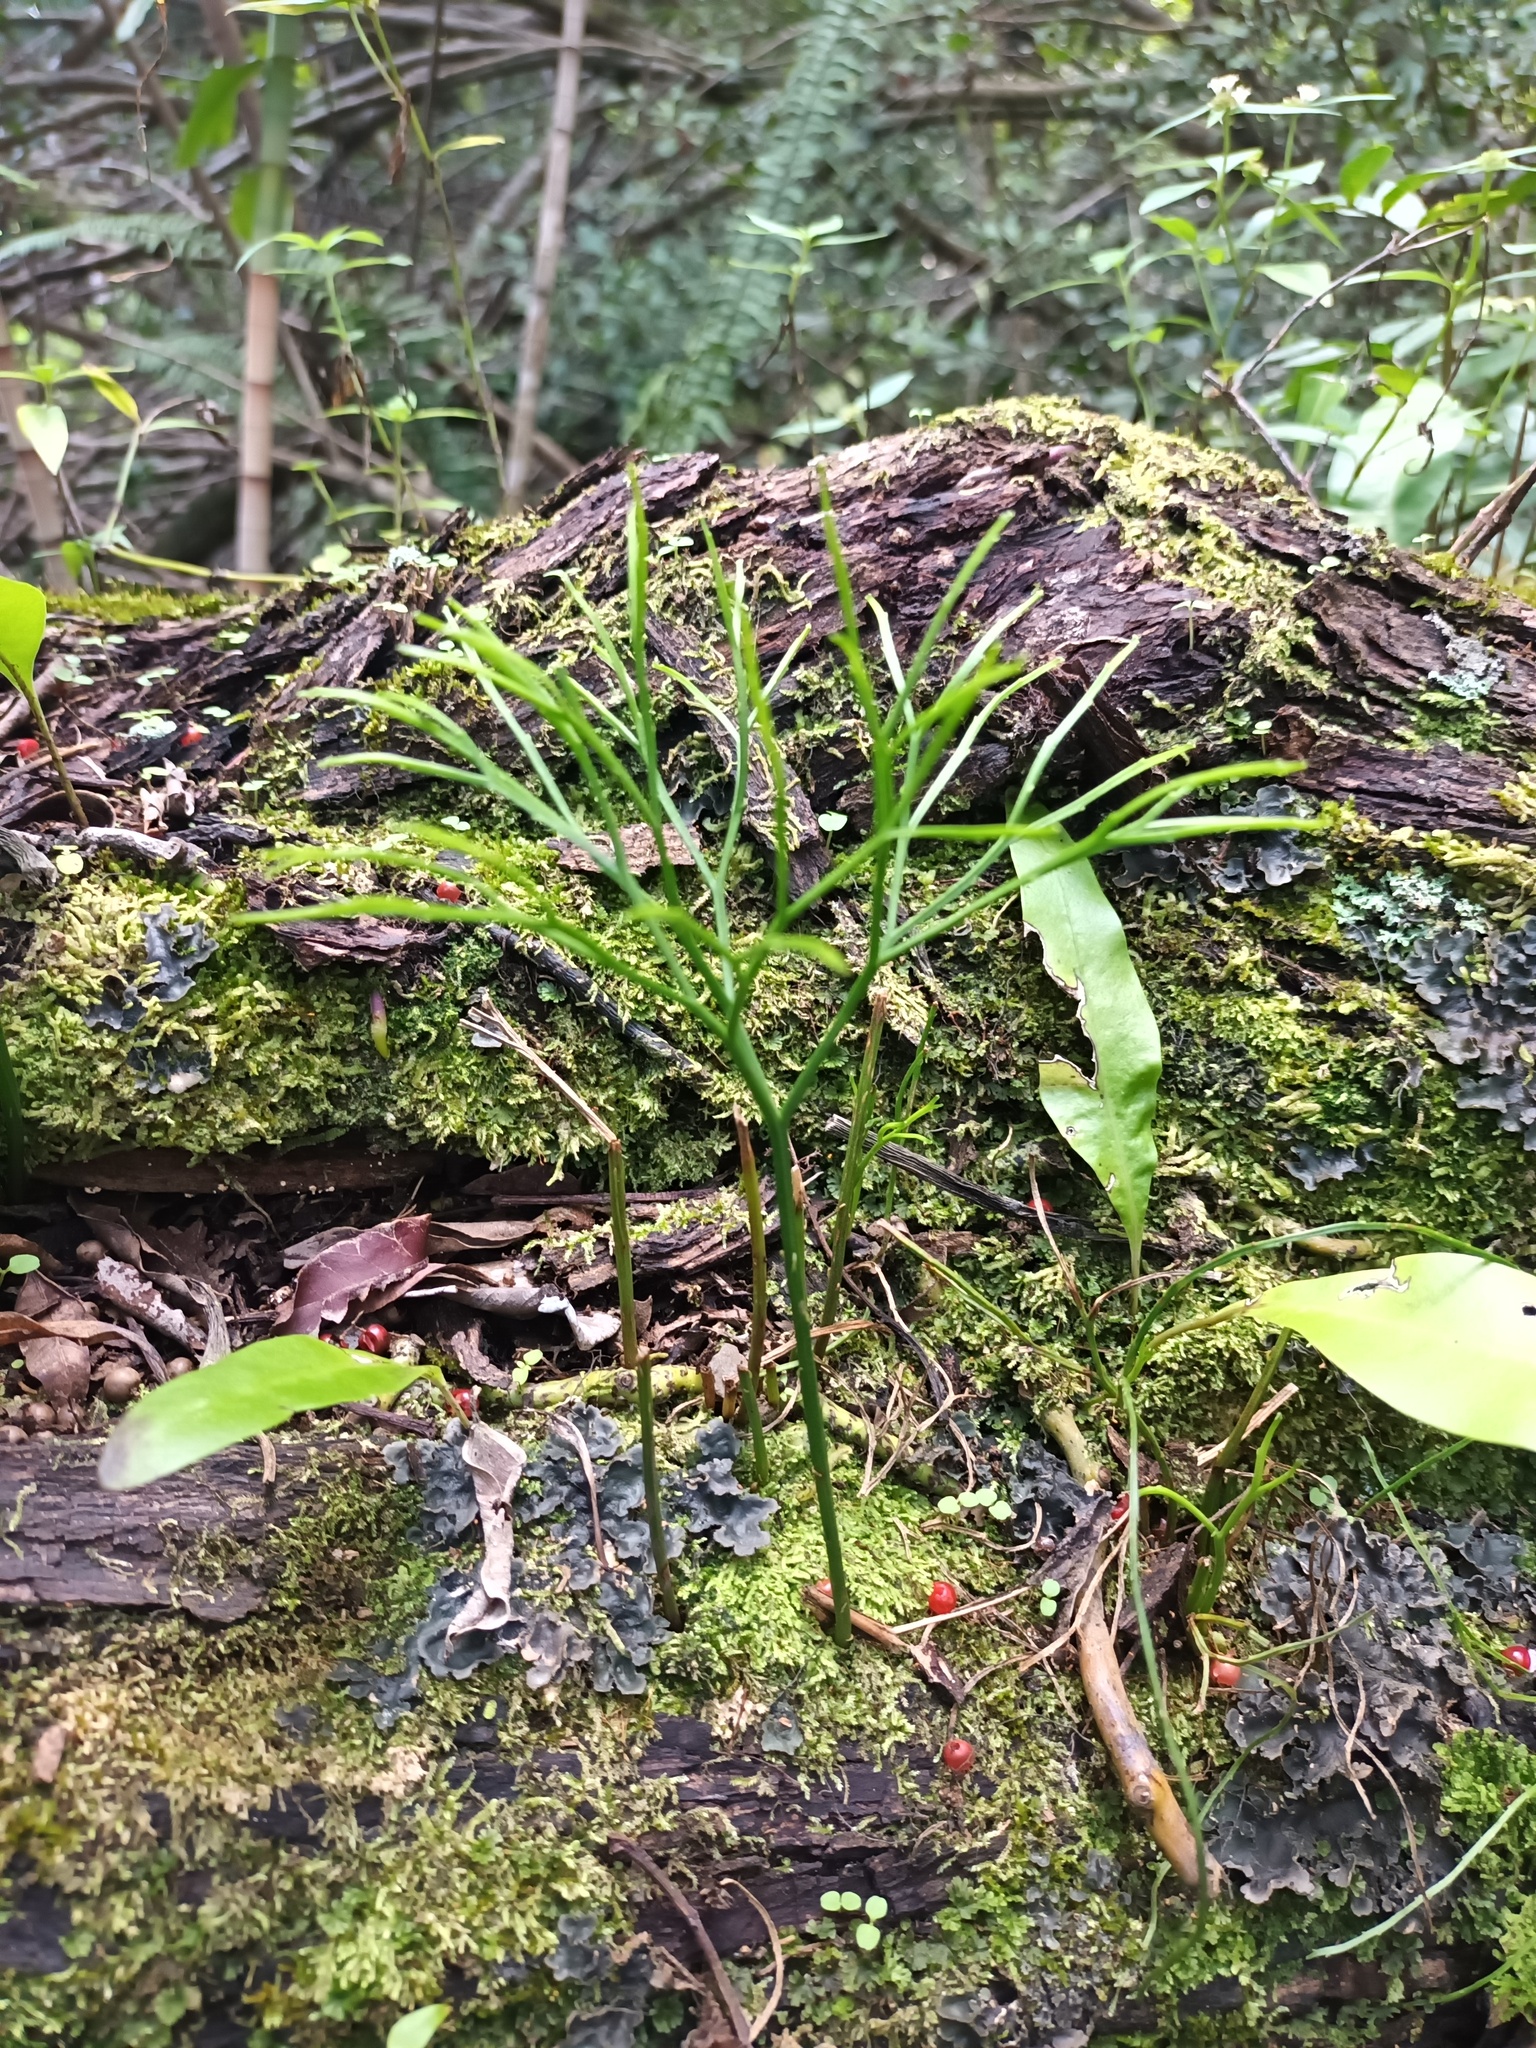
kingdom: Plantae
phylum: Tracheophyta
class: Polypodiopsida
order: Psilotales
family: Psilotaceae
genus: Psilotum
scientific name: Psilotum nudum
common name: Skeleton fork fern
